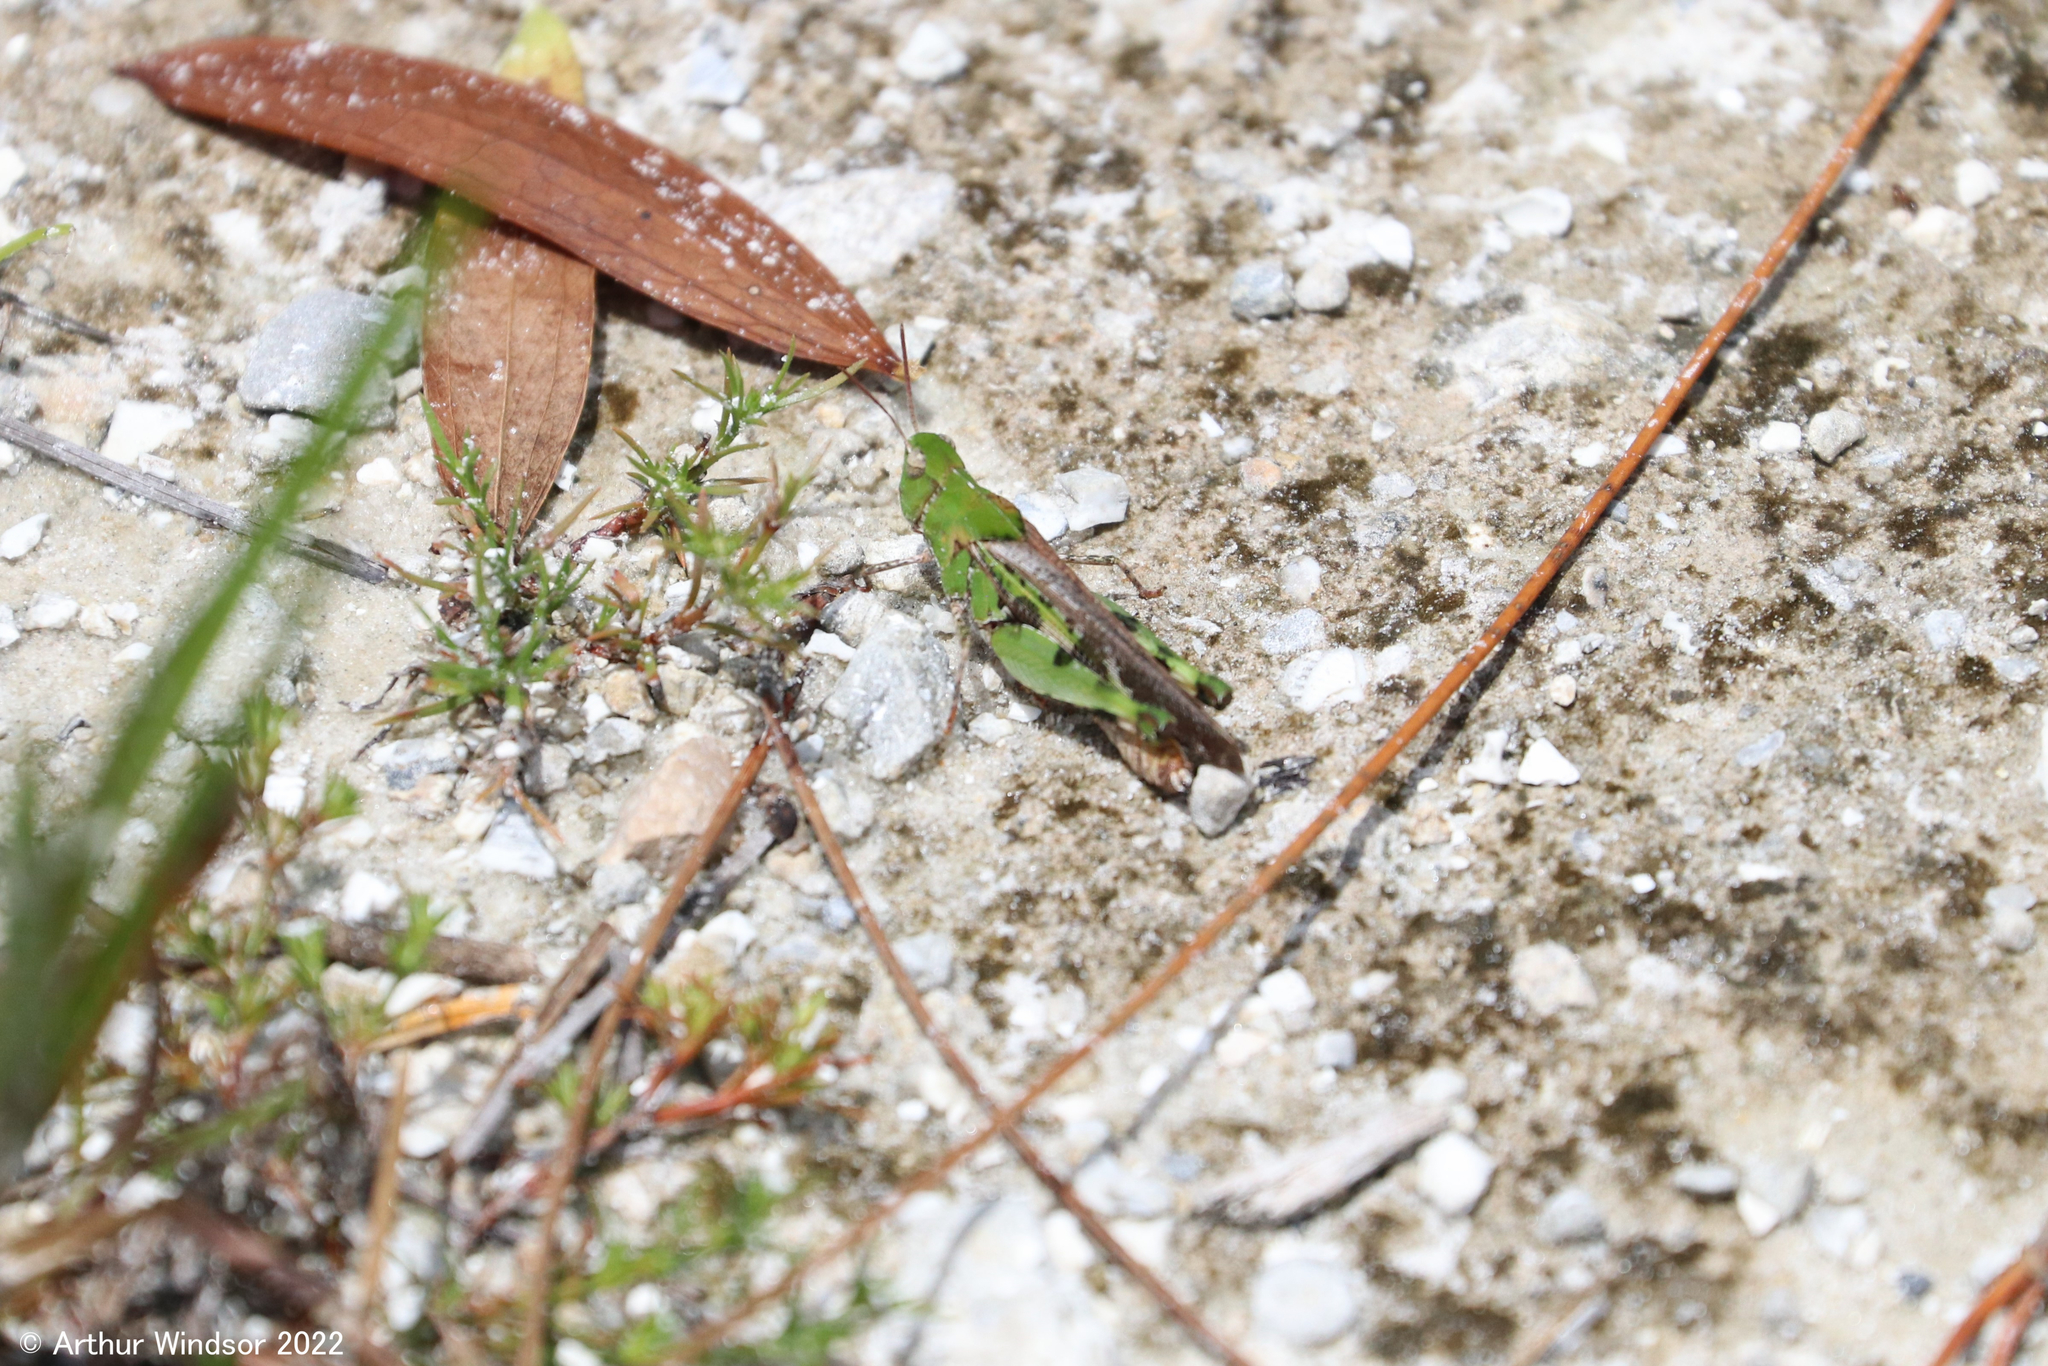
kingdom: Animalia
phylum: Arthropoda
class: Insecta
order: Orthoptera
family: Acrididae
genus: Chortophaga
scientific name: Chortophaga australior
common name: Southern green-striped grasshopper
